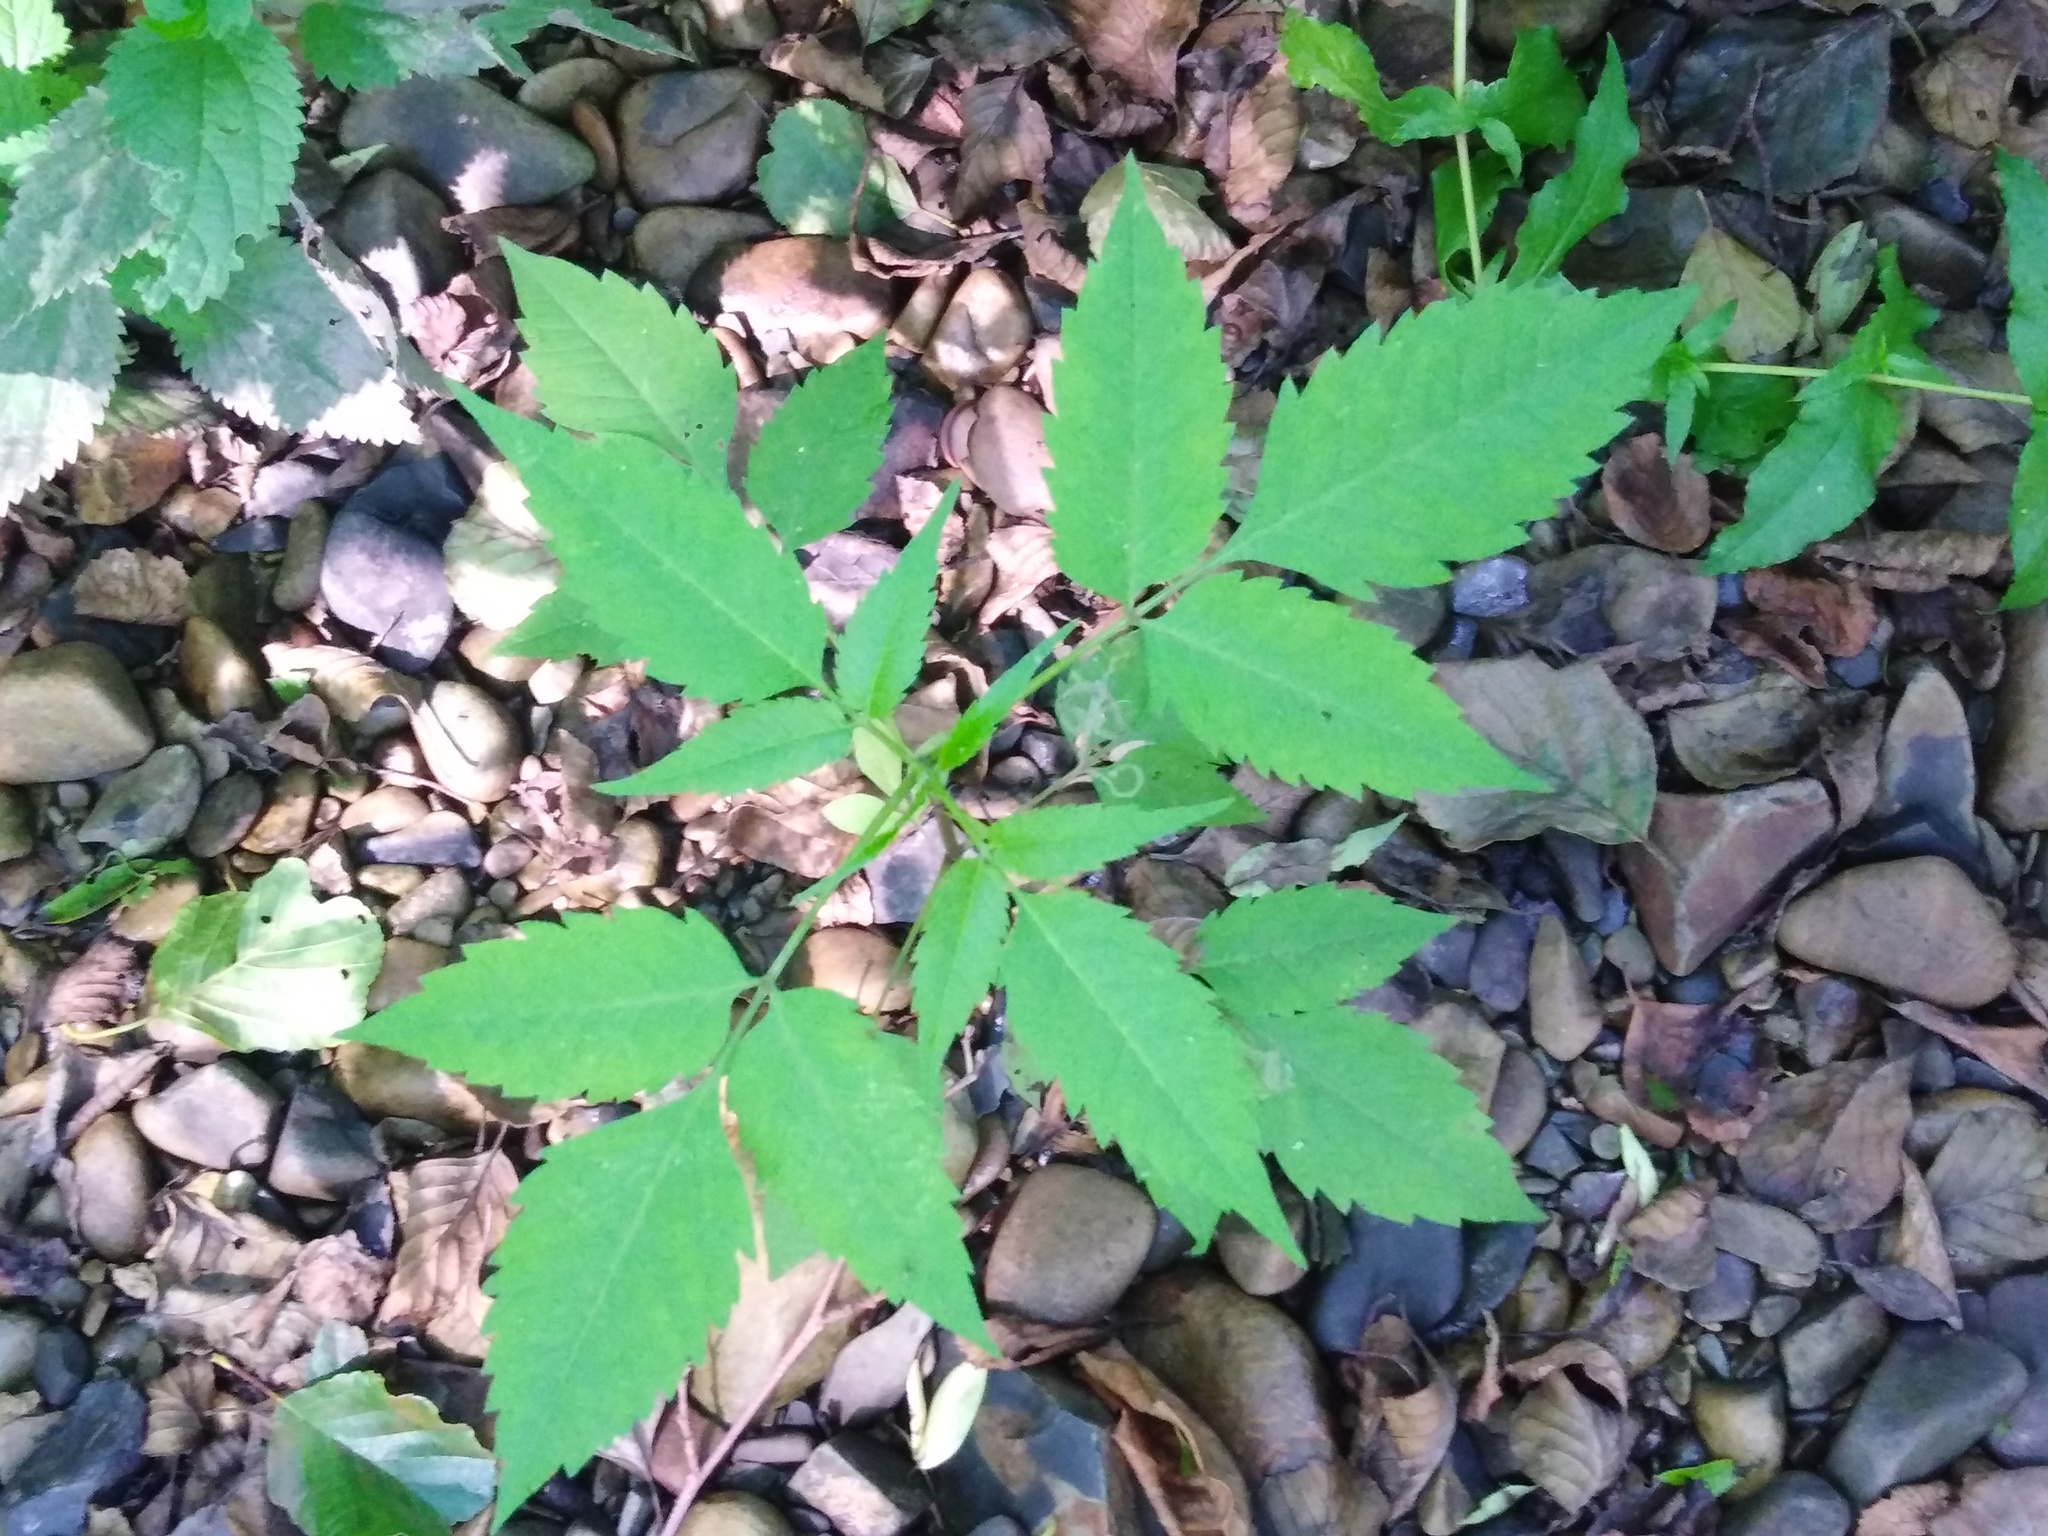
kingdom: Plantae
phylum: Tracheophyta
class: Magnoliopsida
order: Asterales
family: Asteraceae
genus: Bidens
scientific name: Bidens frondosa
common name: Beggarticks
